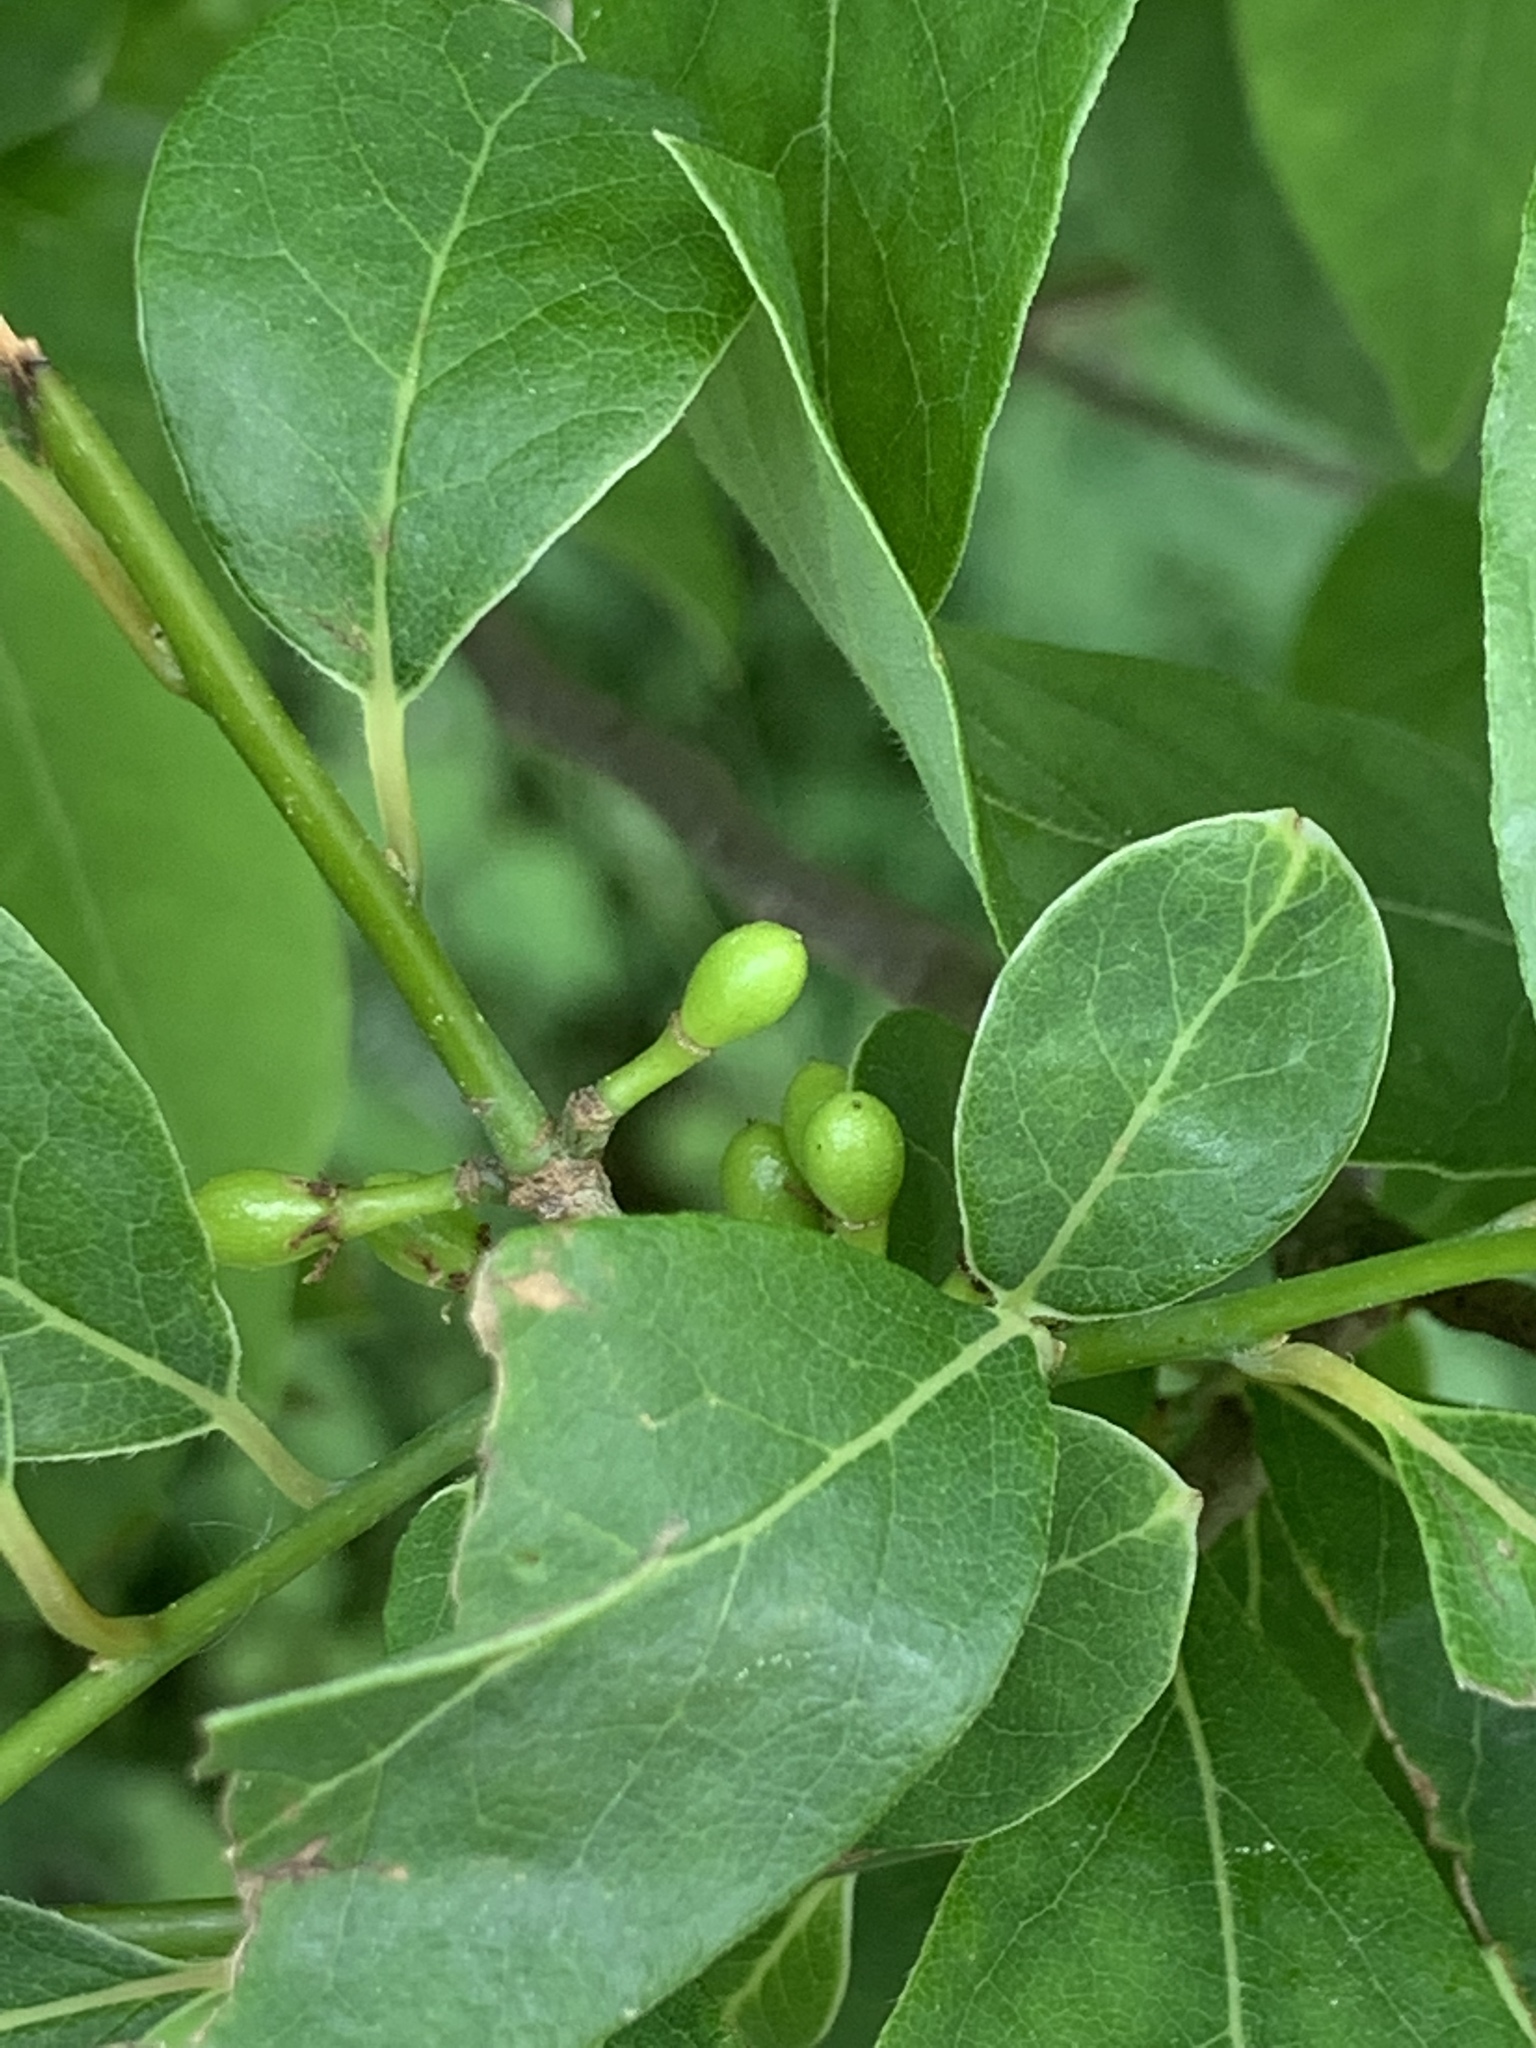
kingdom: Plantae
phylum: Tracheophyta
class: Magnoliopsida
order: Laurales
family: Lauraceae
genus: Lindera
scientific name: Lindera benzoin
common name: Spicebush
